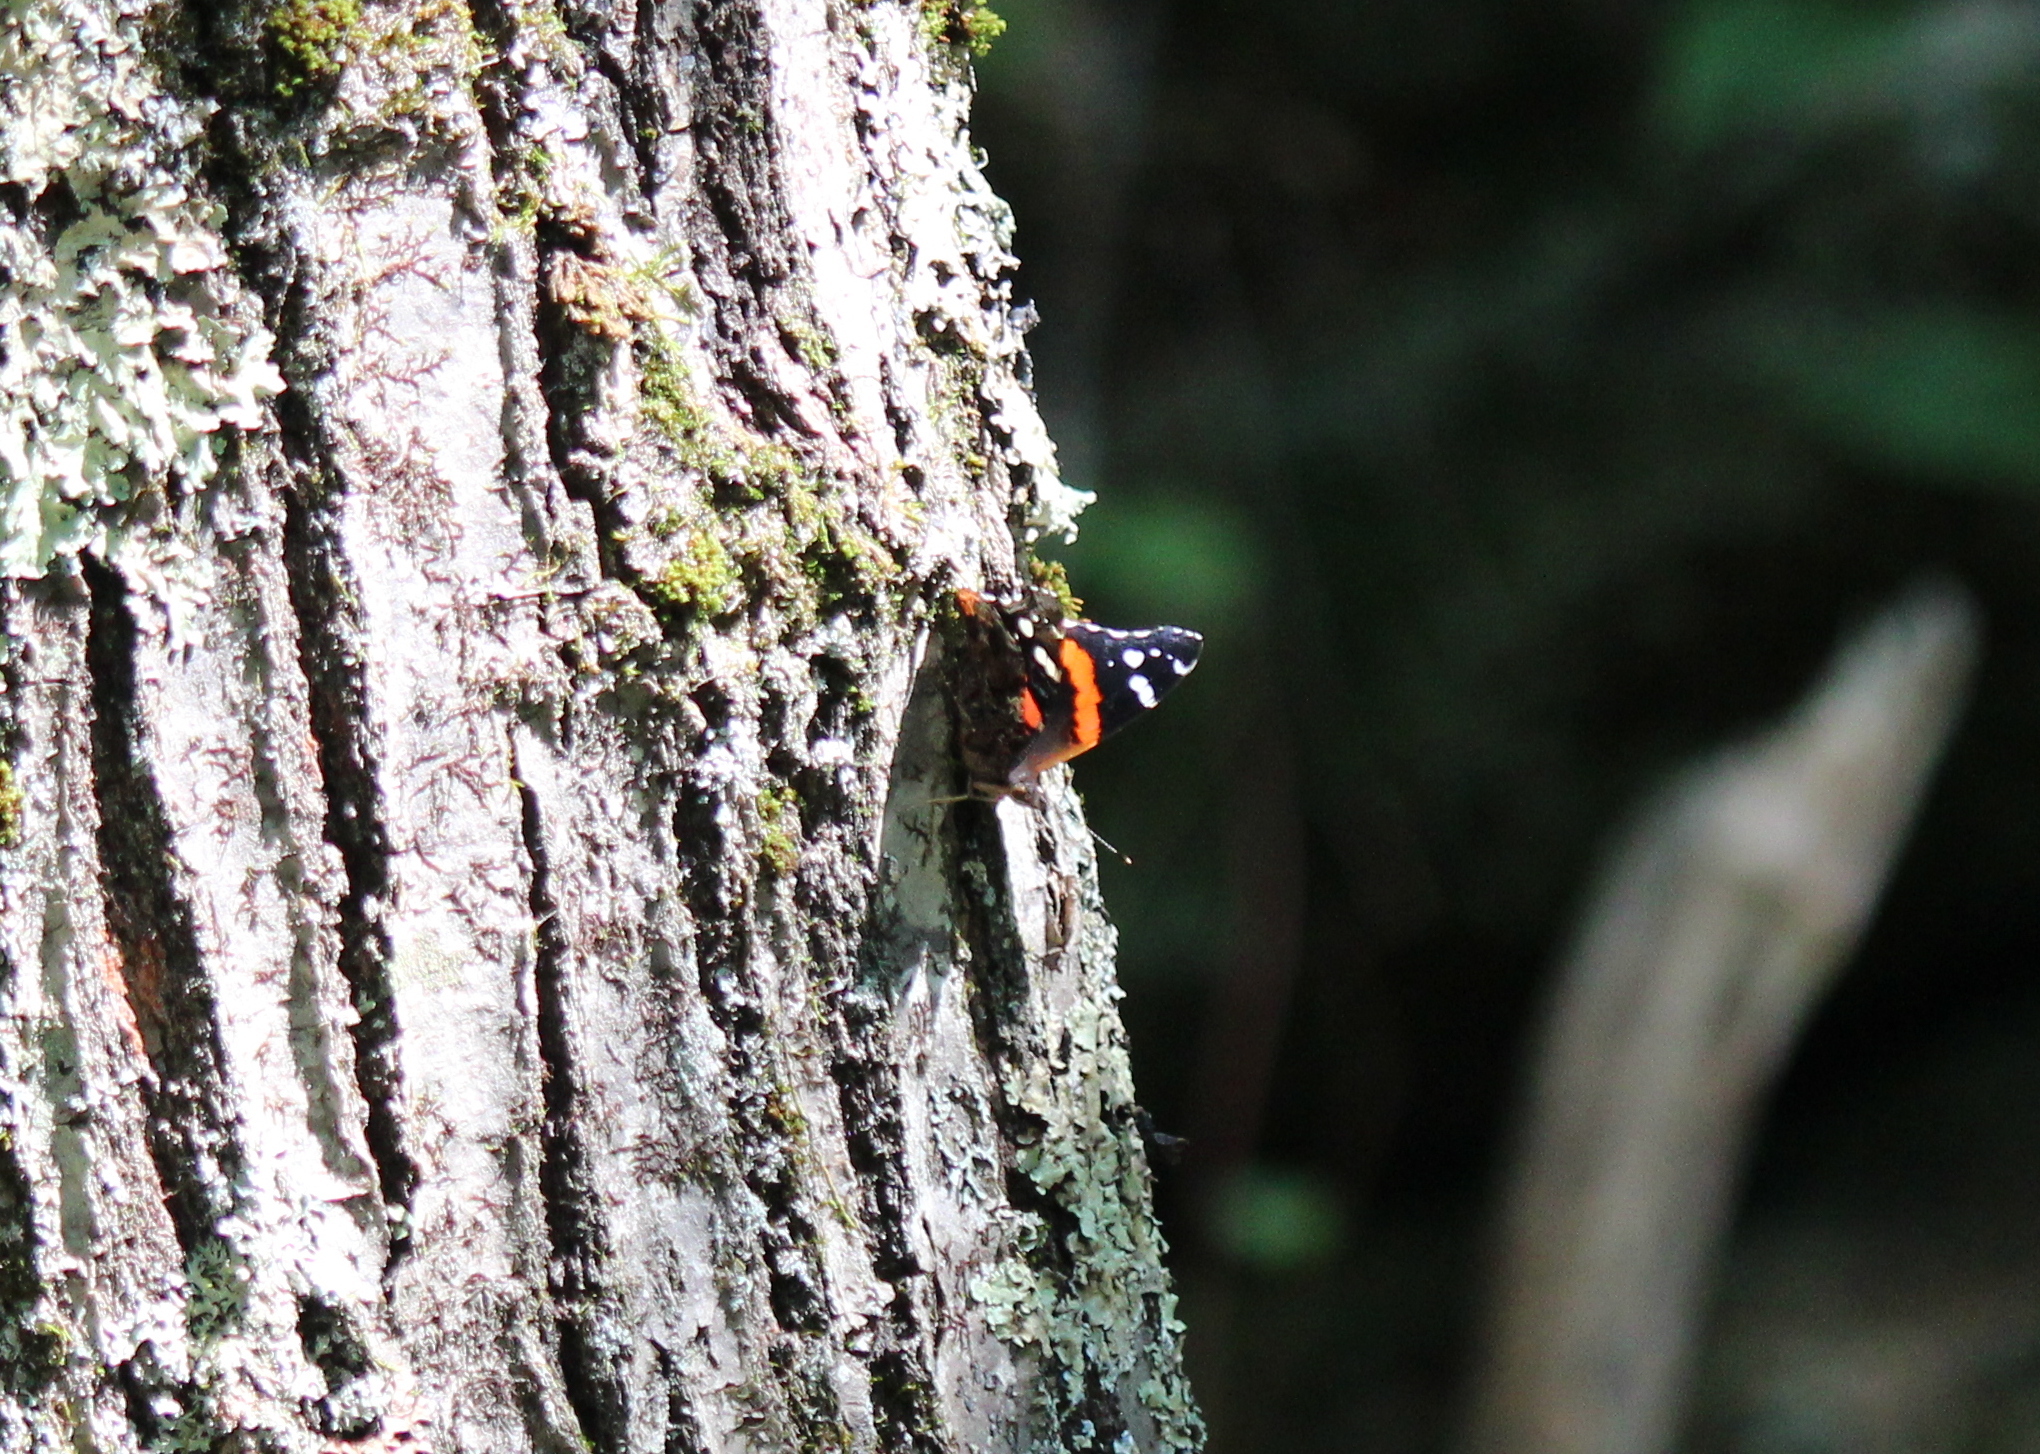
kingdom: Animalia
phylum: Arthropoda
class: Insecta
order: Lepidoptera
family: Nymphalidae
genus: Vanessa
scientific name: Vanessa atalanta
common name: Red admiral
